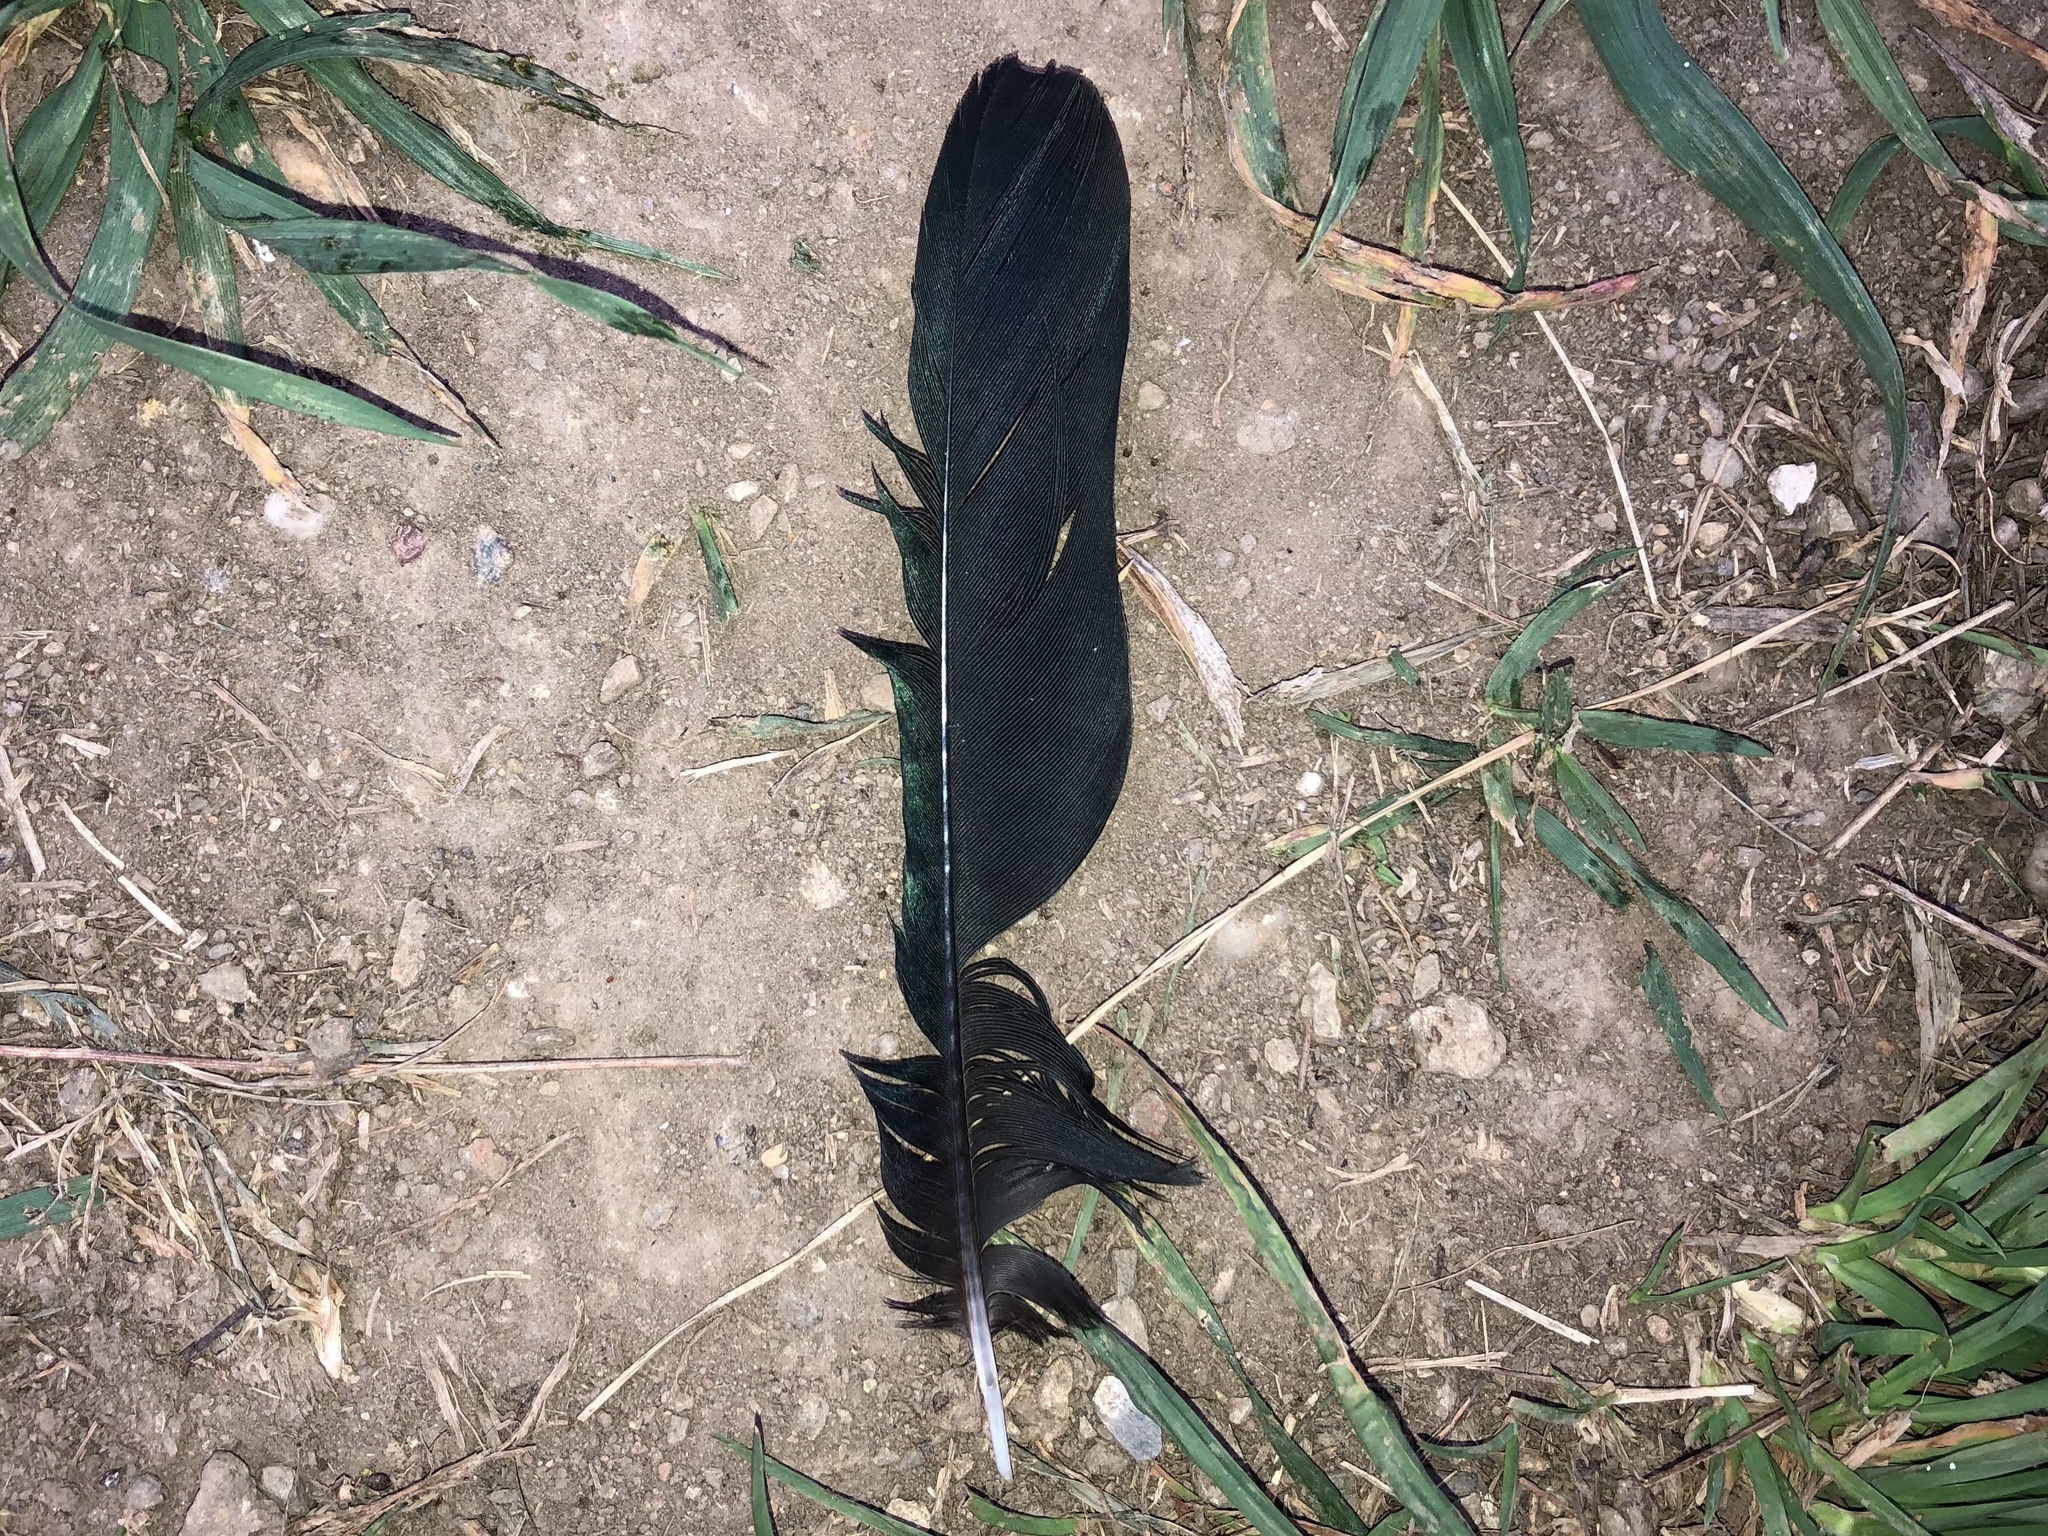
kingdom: Animalia
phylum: Chordata
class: Aves
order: Passeriformes
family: Corvidae
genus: Pica
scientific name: Pica pica
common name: Eurasian magpie
